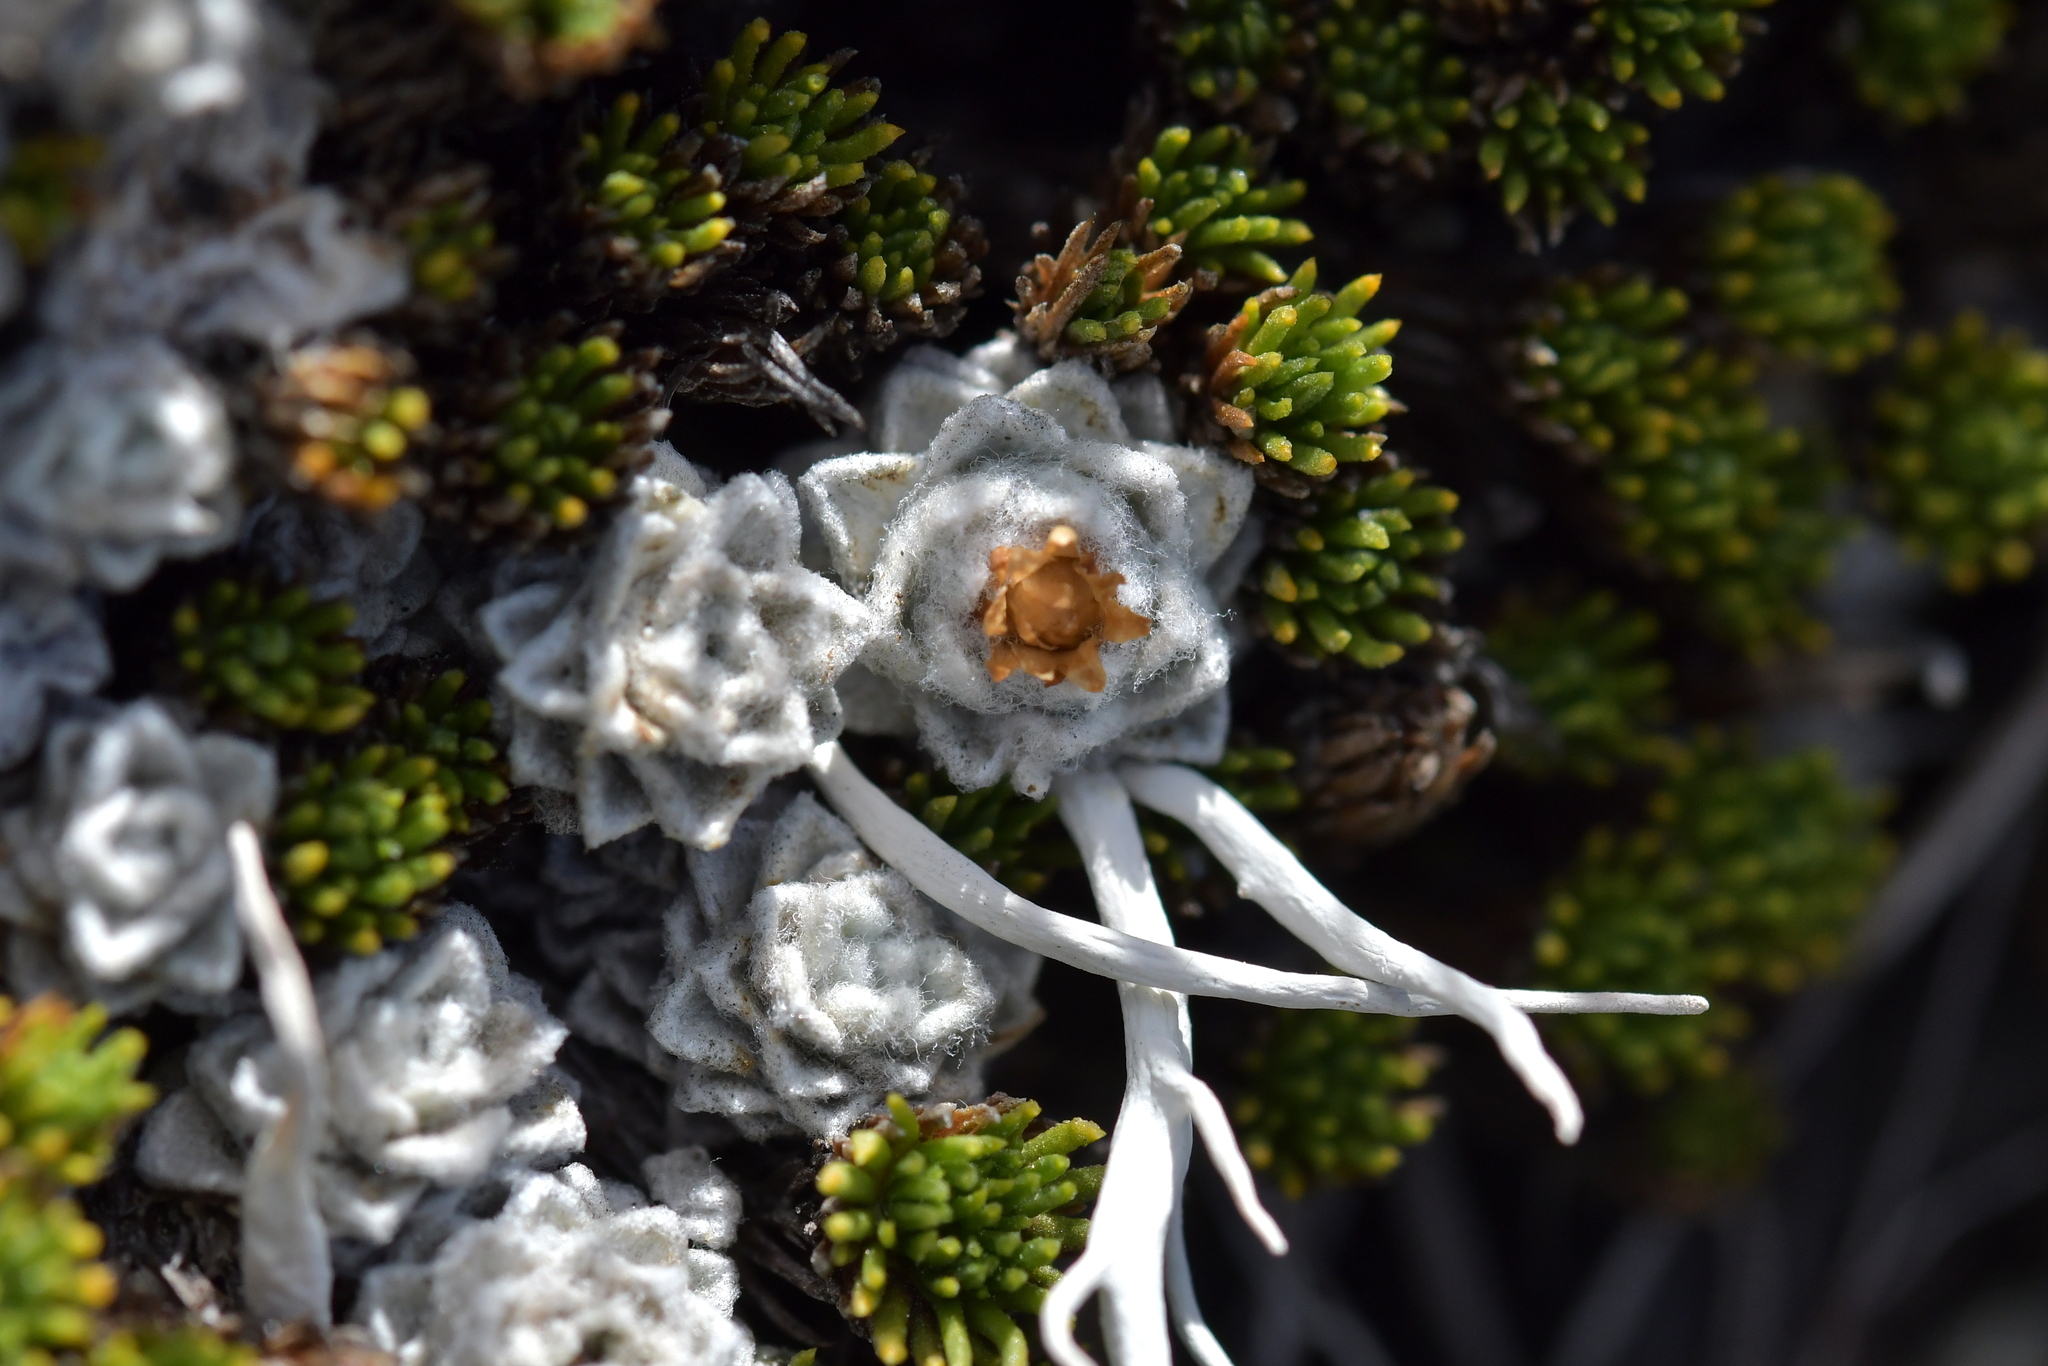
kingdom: Plantae
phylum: Tracheophyta
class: Magnoliopsida
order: Asterales
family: Asteraceae
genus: Raoulia
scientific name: Raoulia youngii
